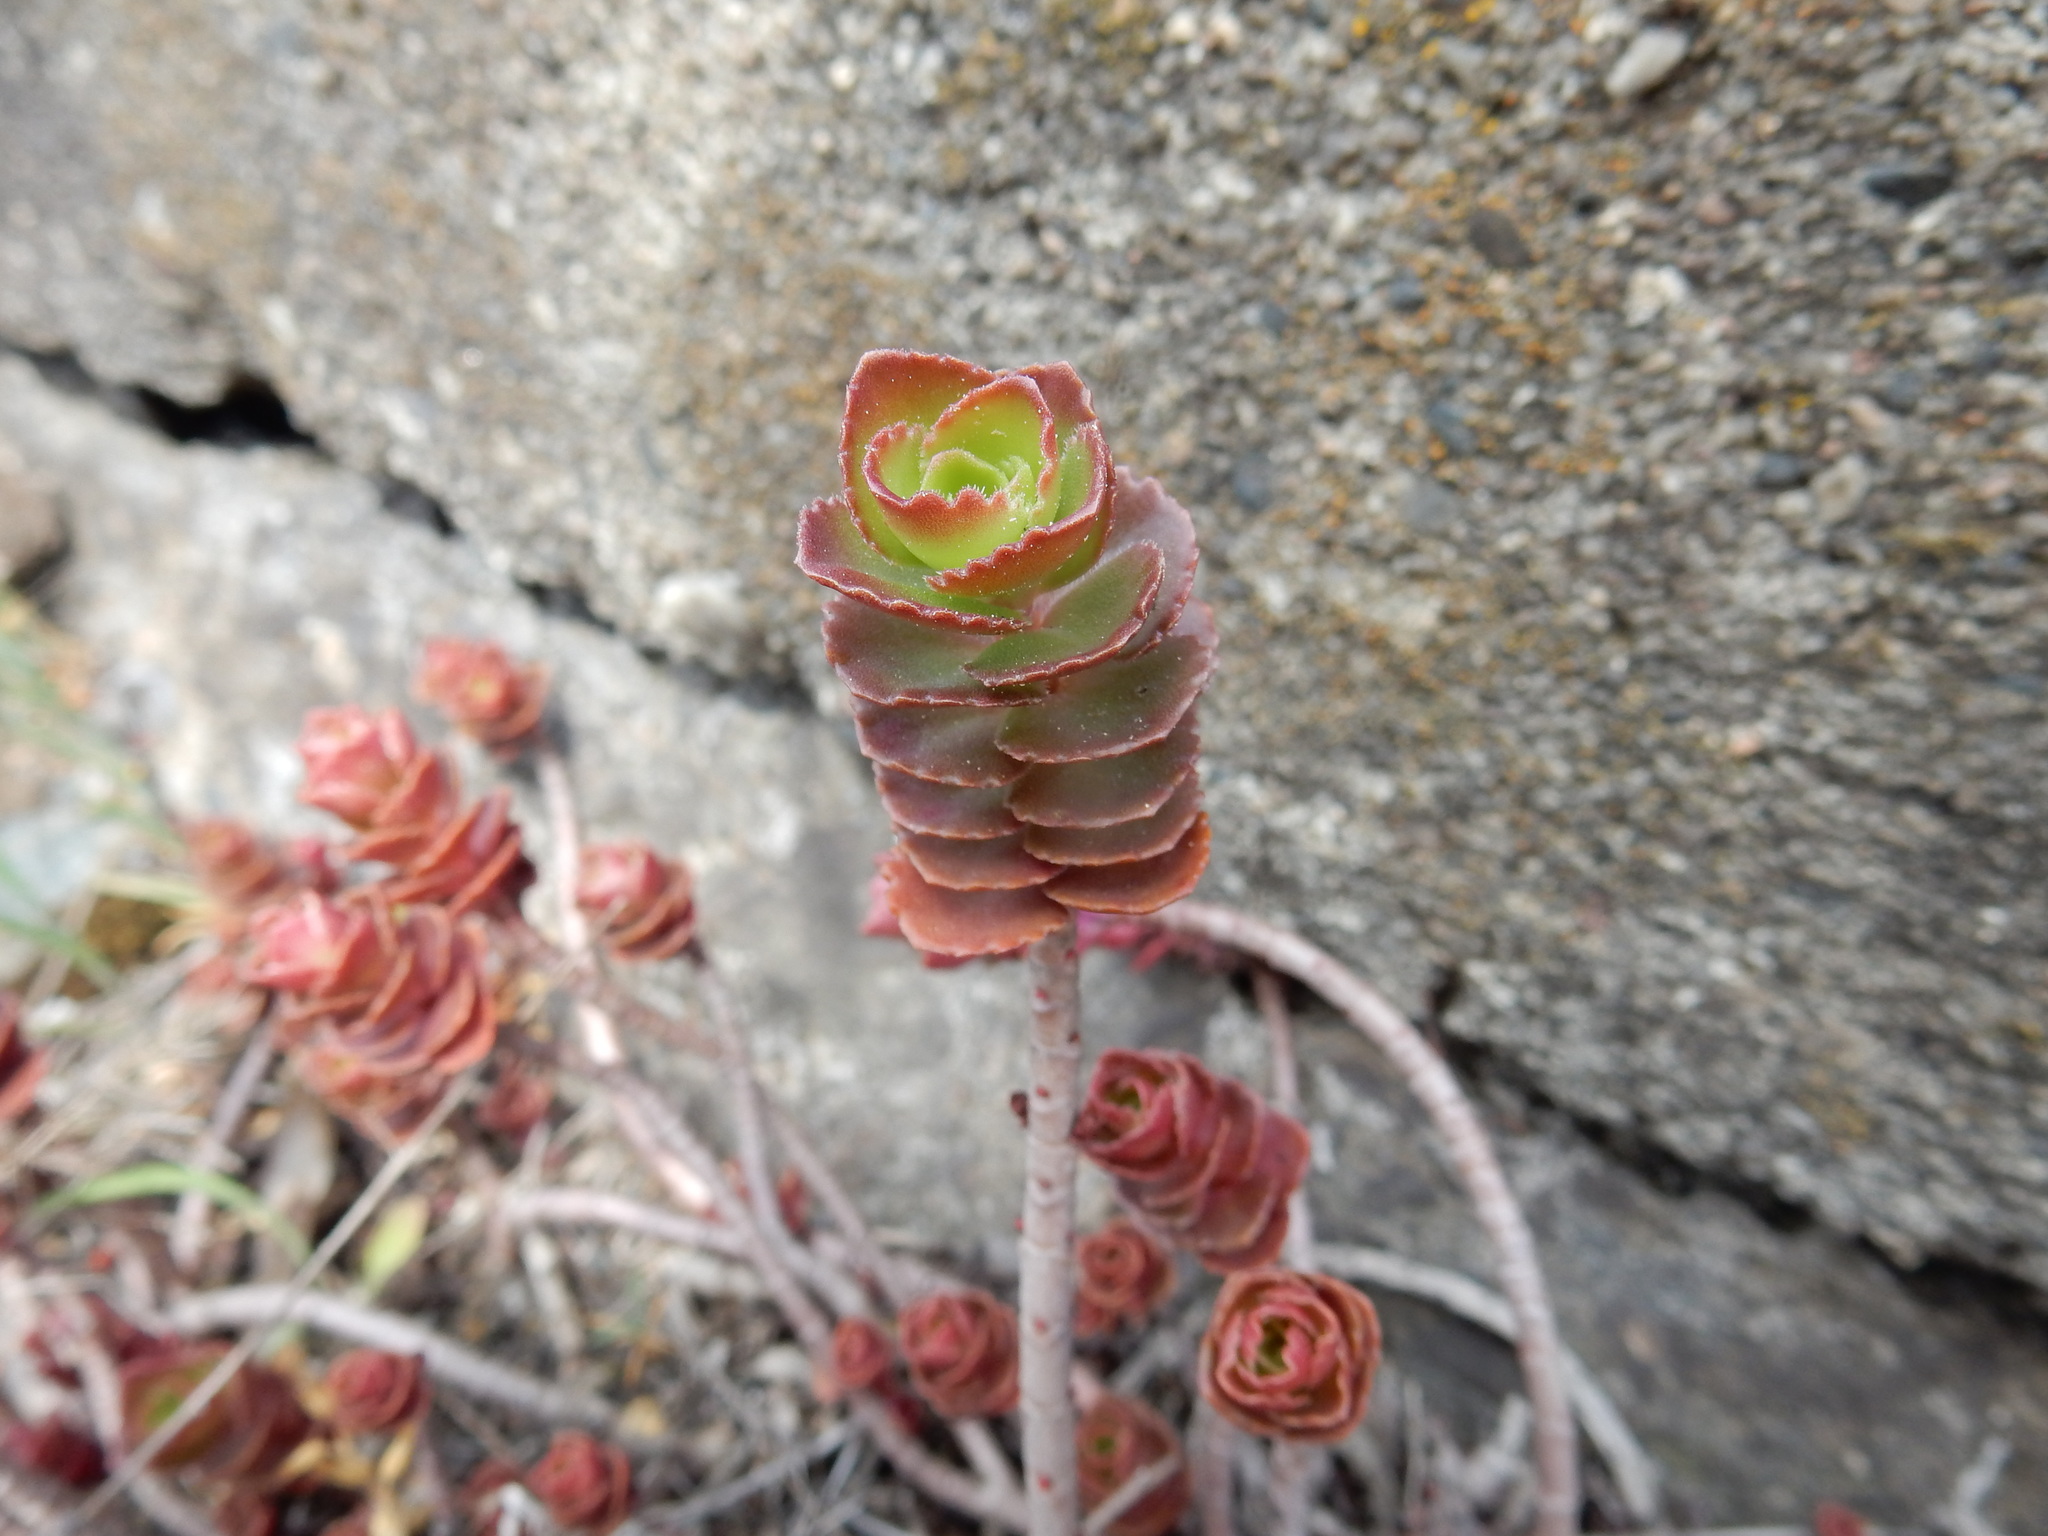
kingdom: Plantae
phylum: Tracheophyta
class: Magnoliopsida
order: Saxifragales
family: Crassulaceae
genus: Phedimus
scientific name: Phedimus spurius
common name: Caucasian stonecrop
